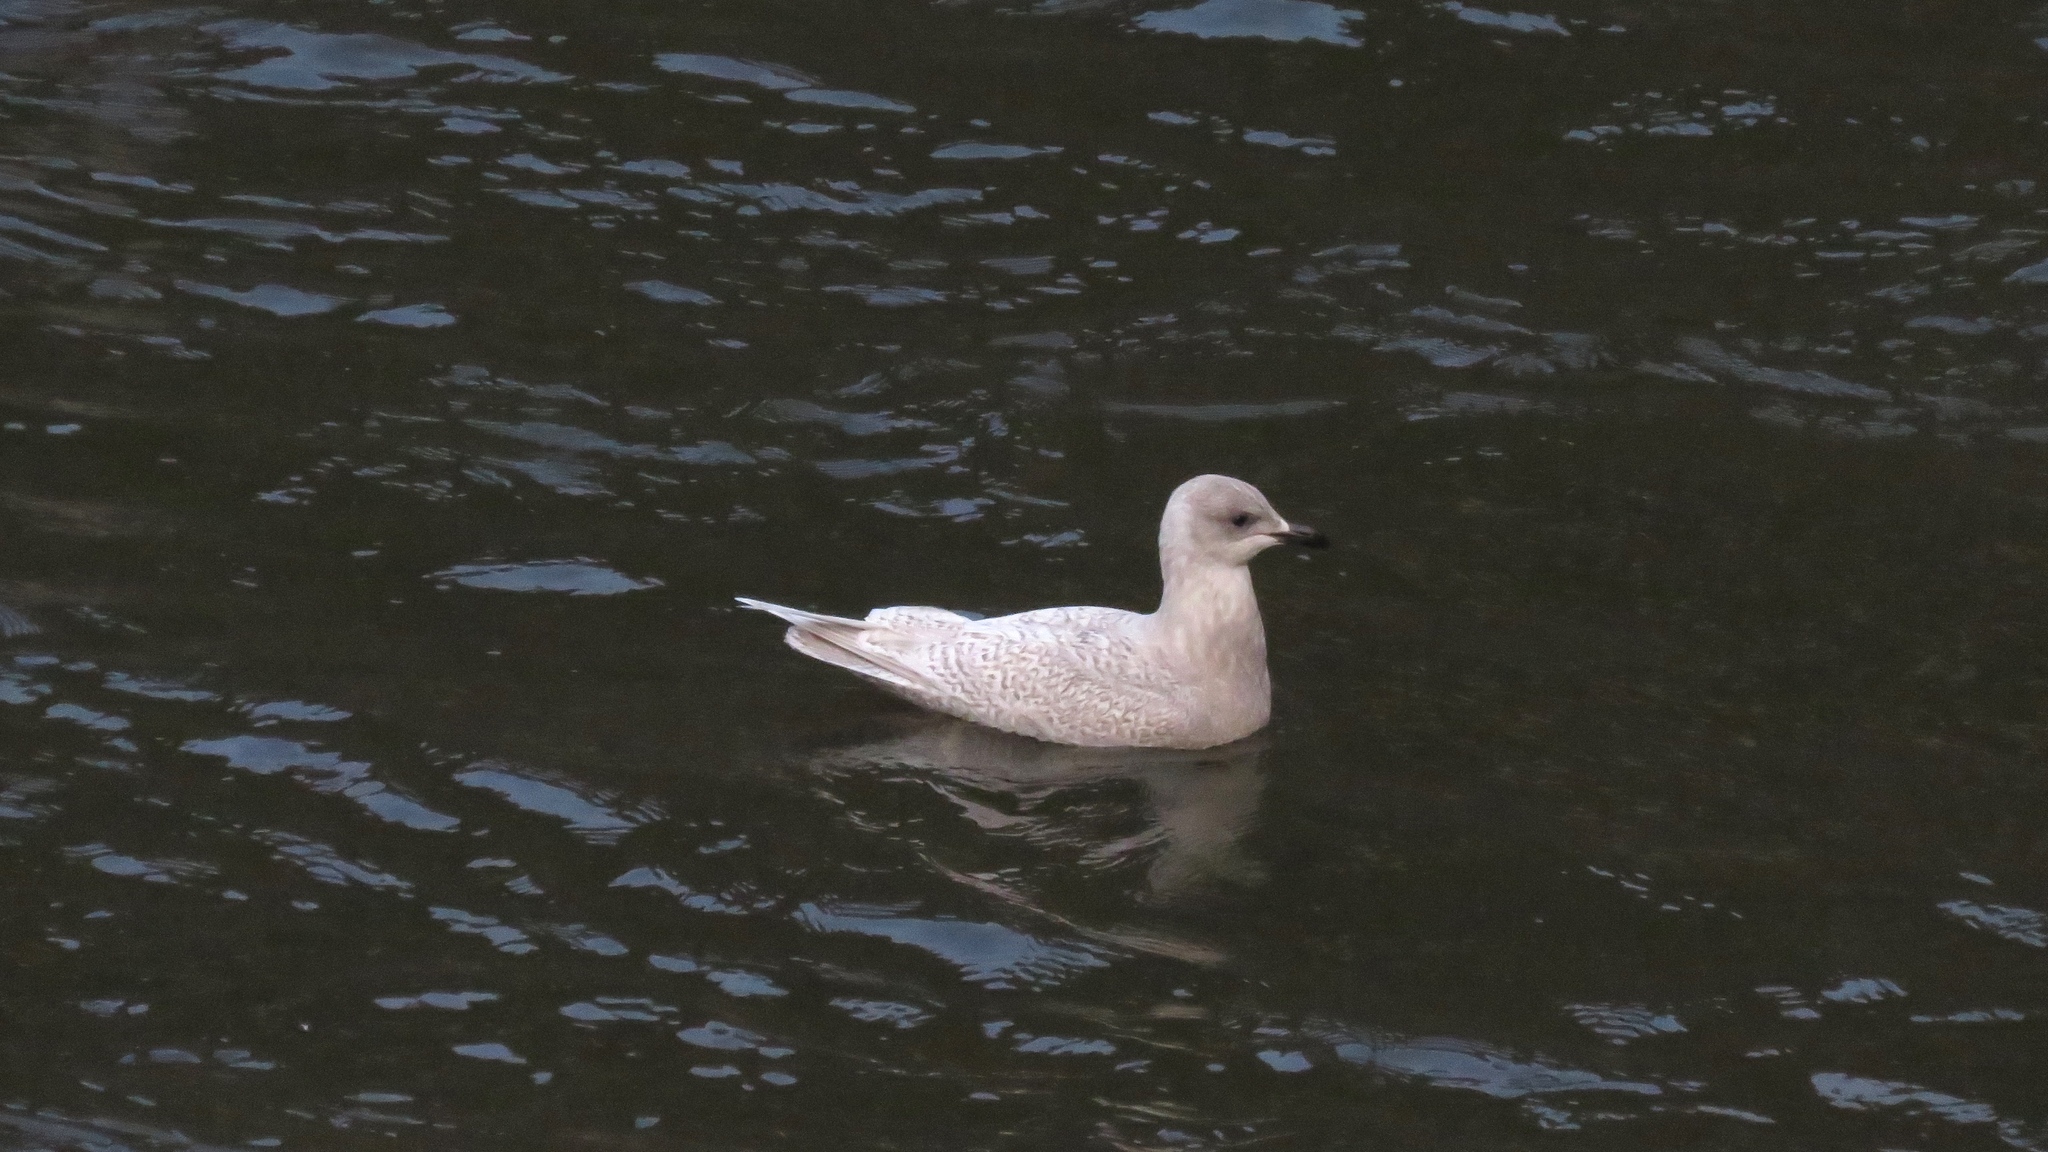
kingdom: Animalia
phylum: Chordata
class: Aves
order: Charadriiformes
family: Laridae
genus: Larus
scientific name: Larus glaucoides
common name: Iceland gull
